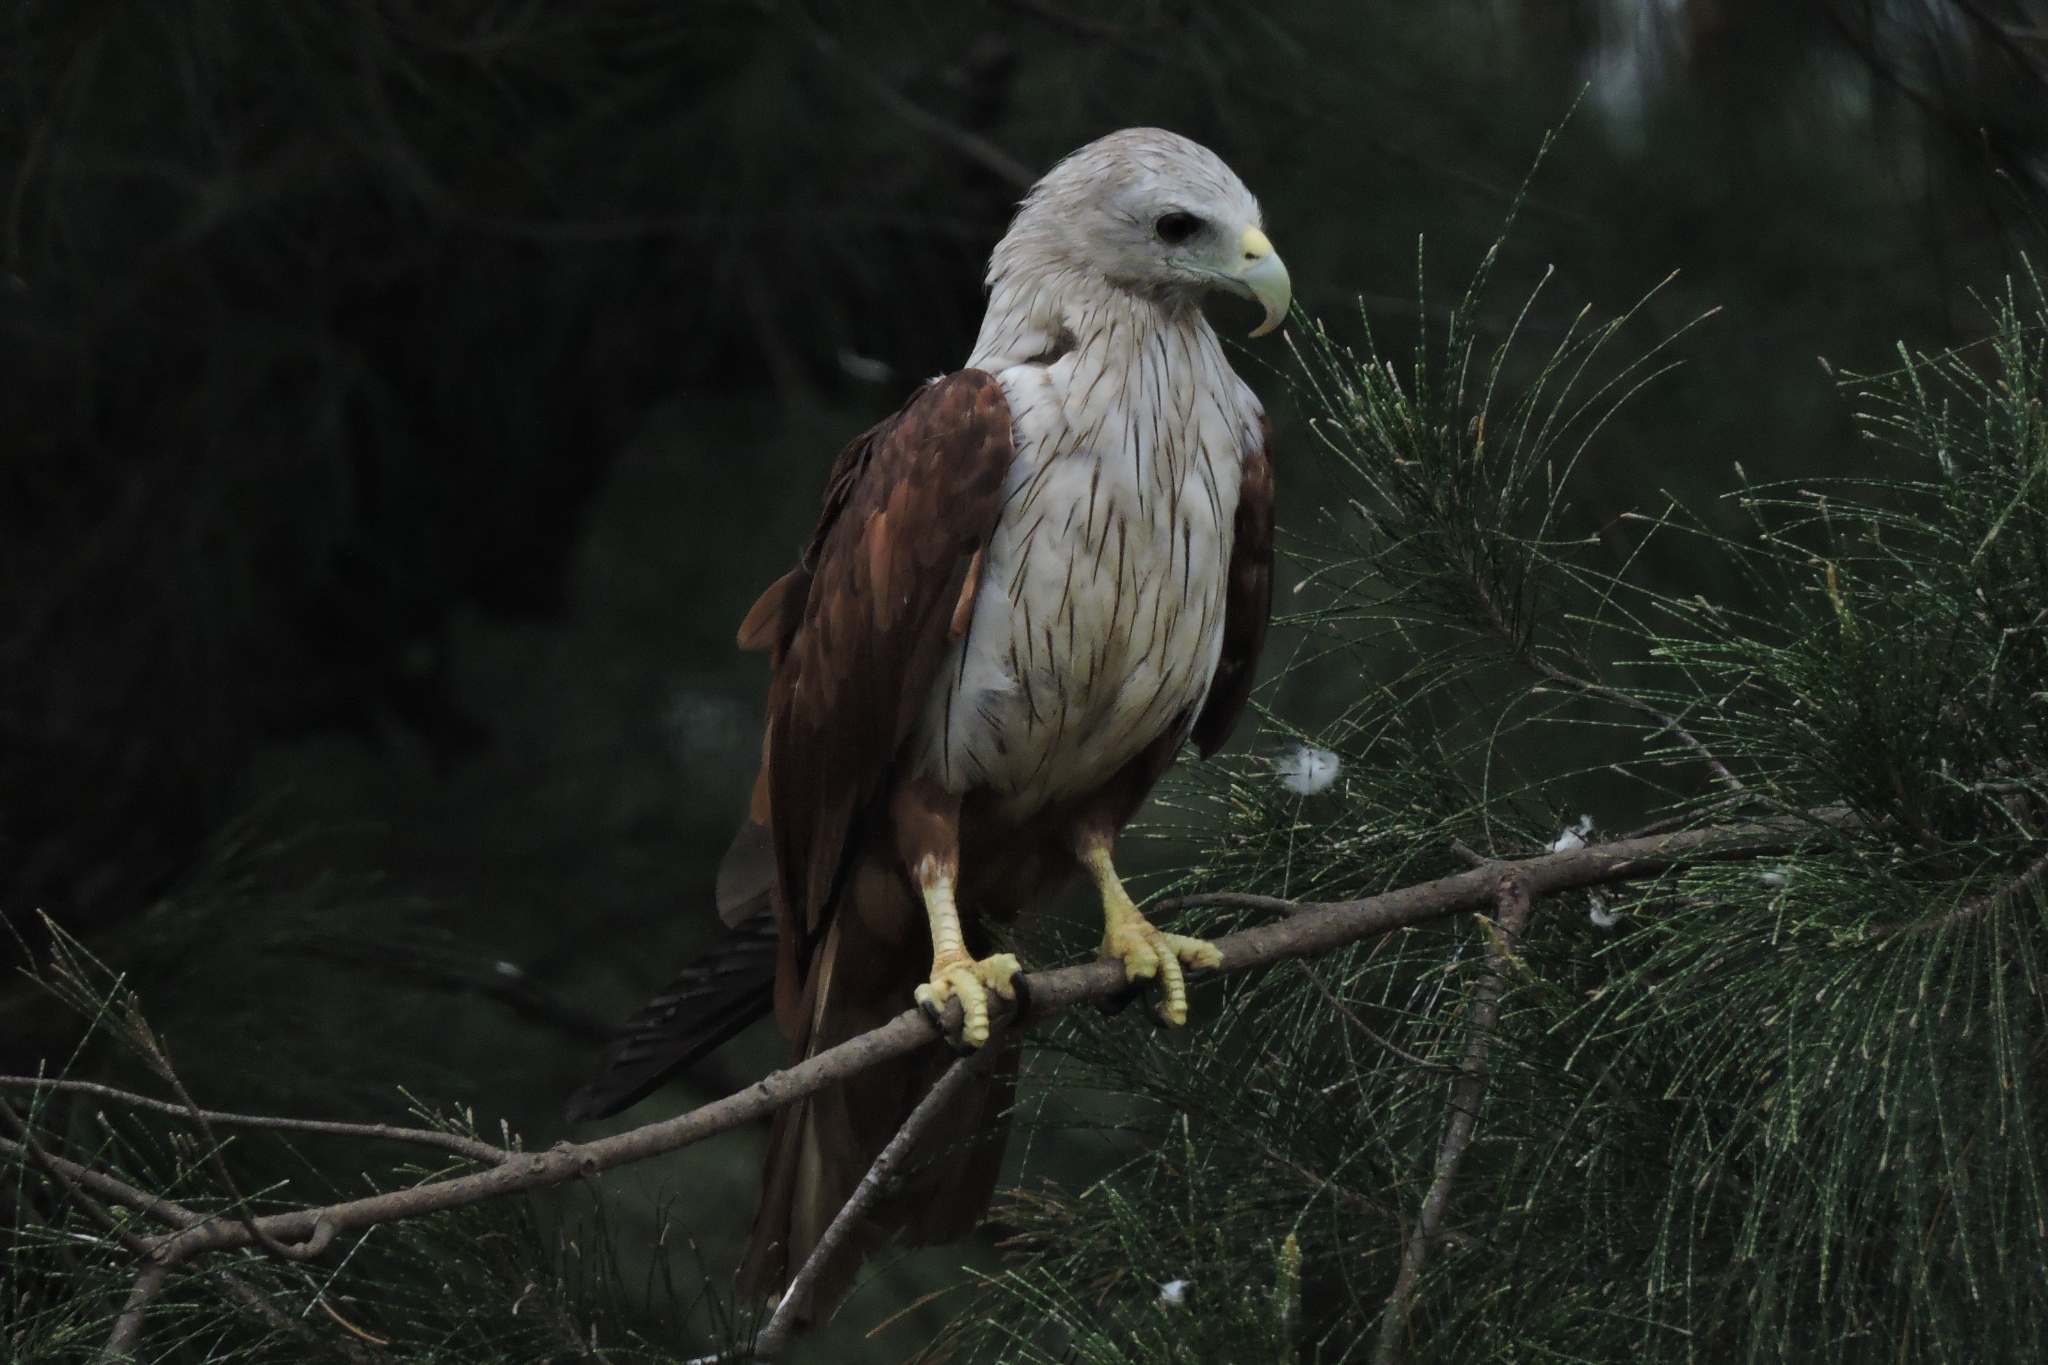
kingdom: Animalia
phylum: Chordata
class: Aves
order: Accipitriformes
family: Accipitridae
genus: Haliastur
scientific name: Haliastur indus
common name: Brahminy kite
